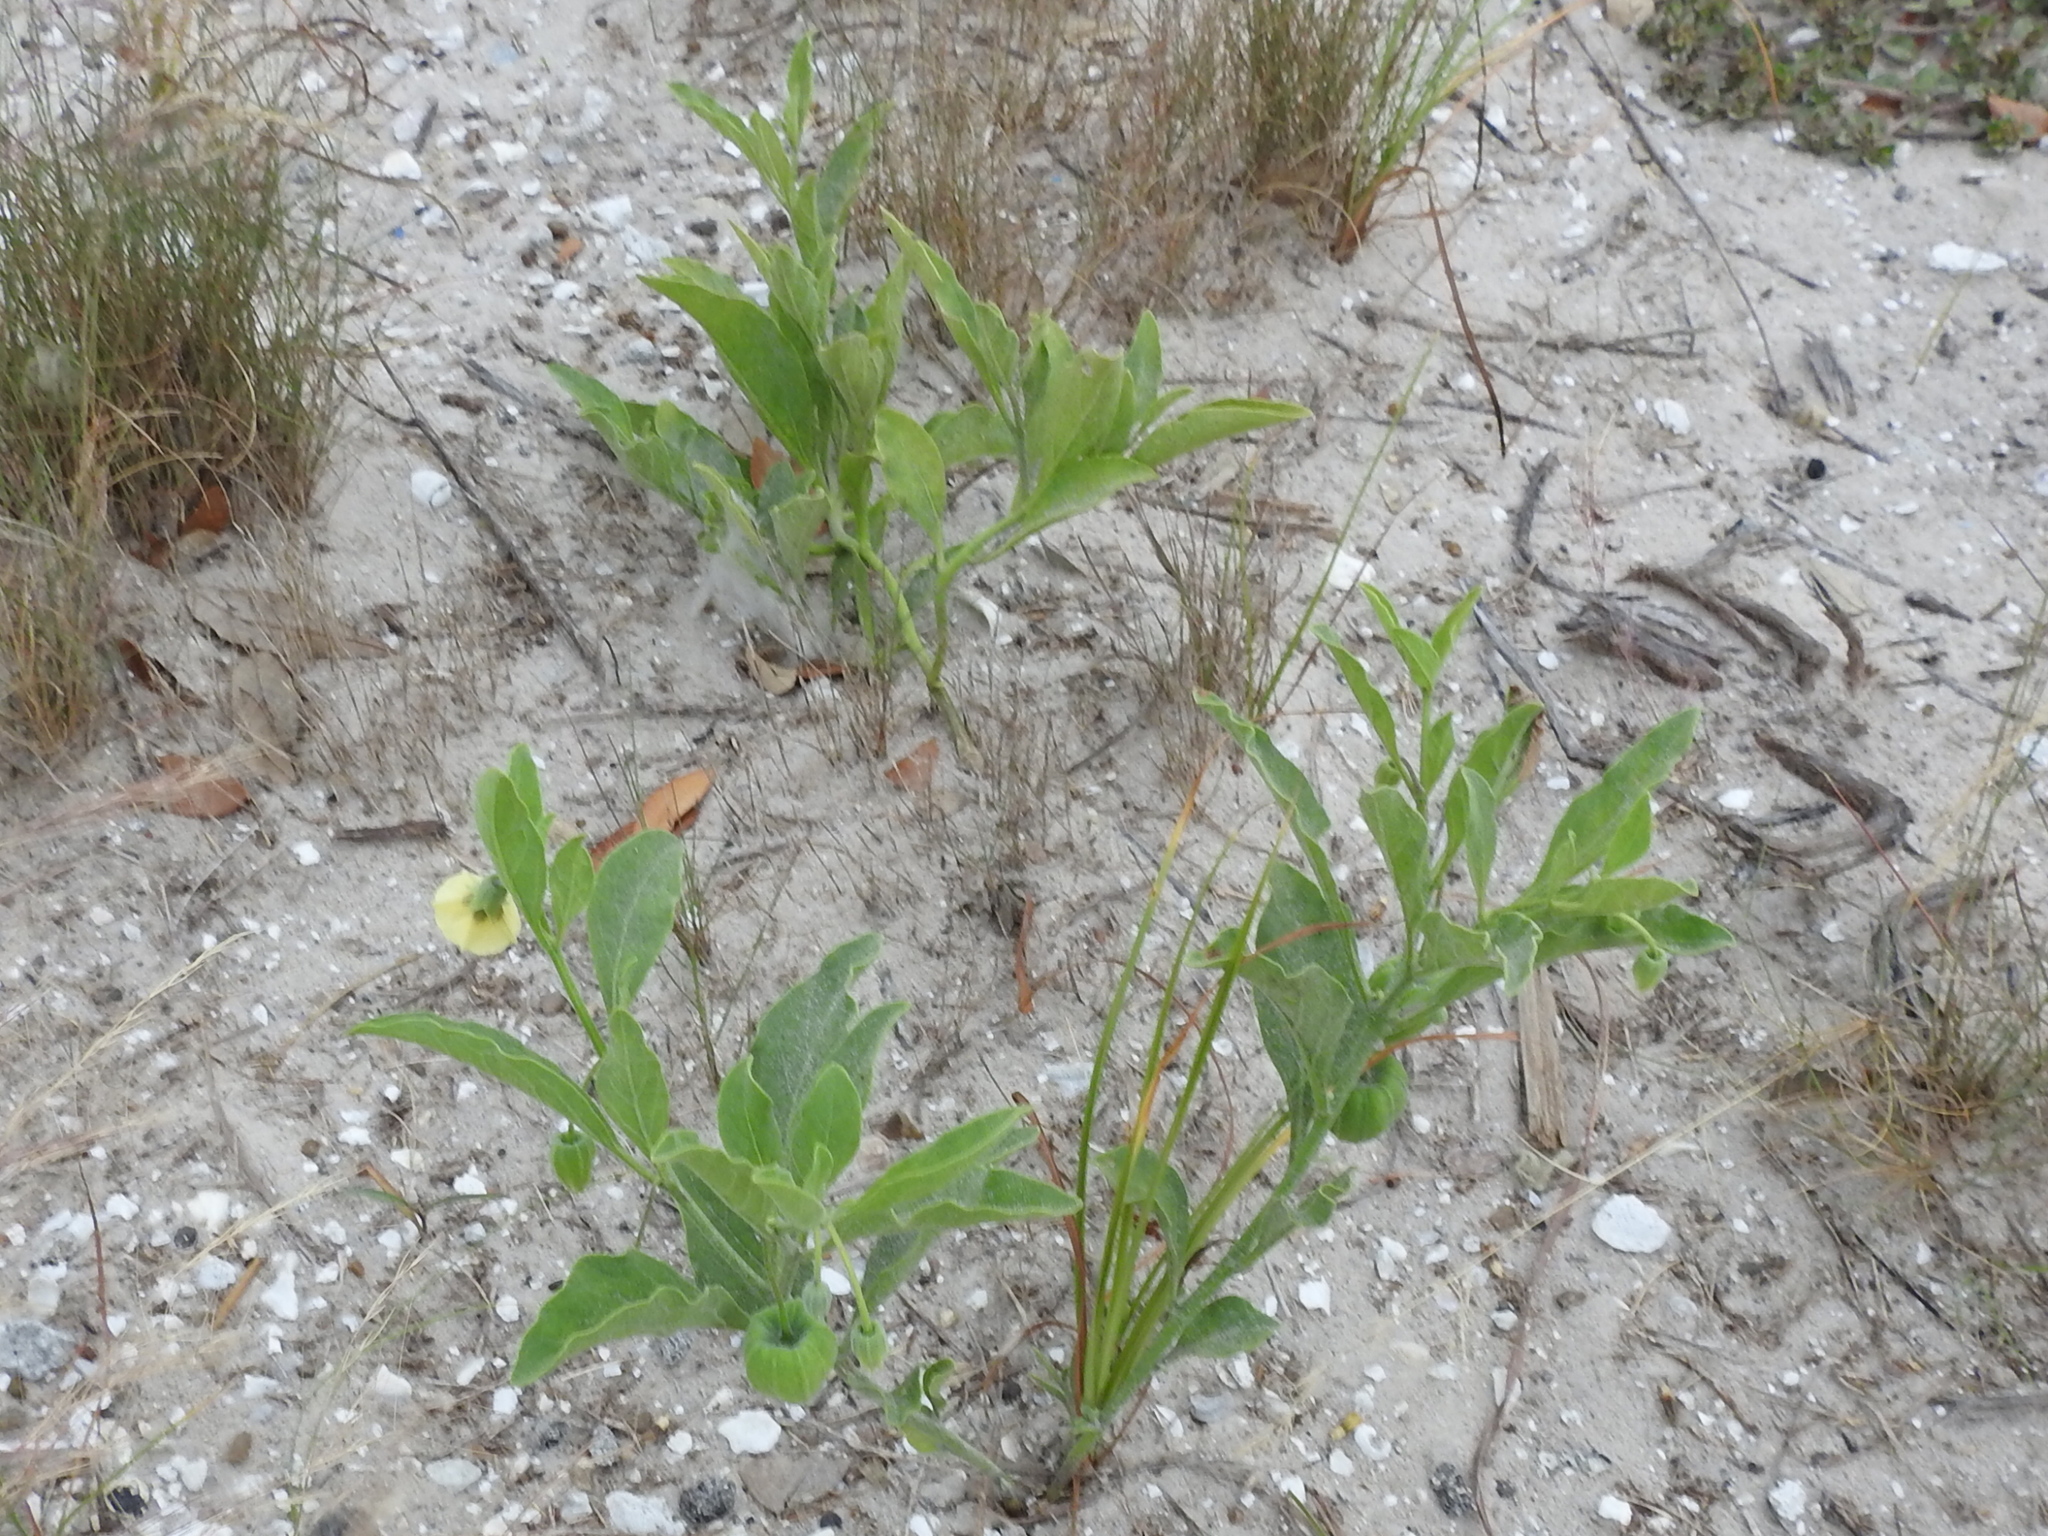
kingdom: Plantae
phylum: Tracheophyta
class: Magnoliopsida
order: Solanales
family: Solanaceae
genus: Physalis
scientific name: Physalis cinerascens
